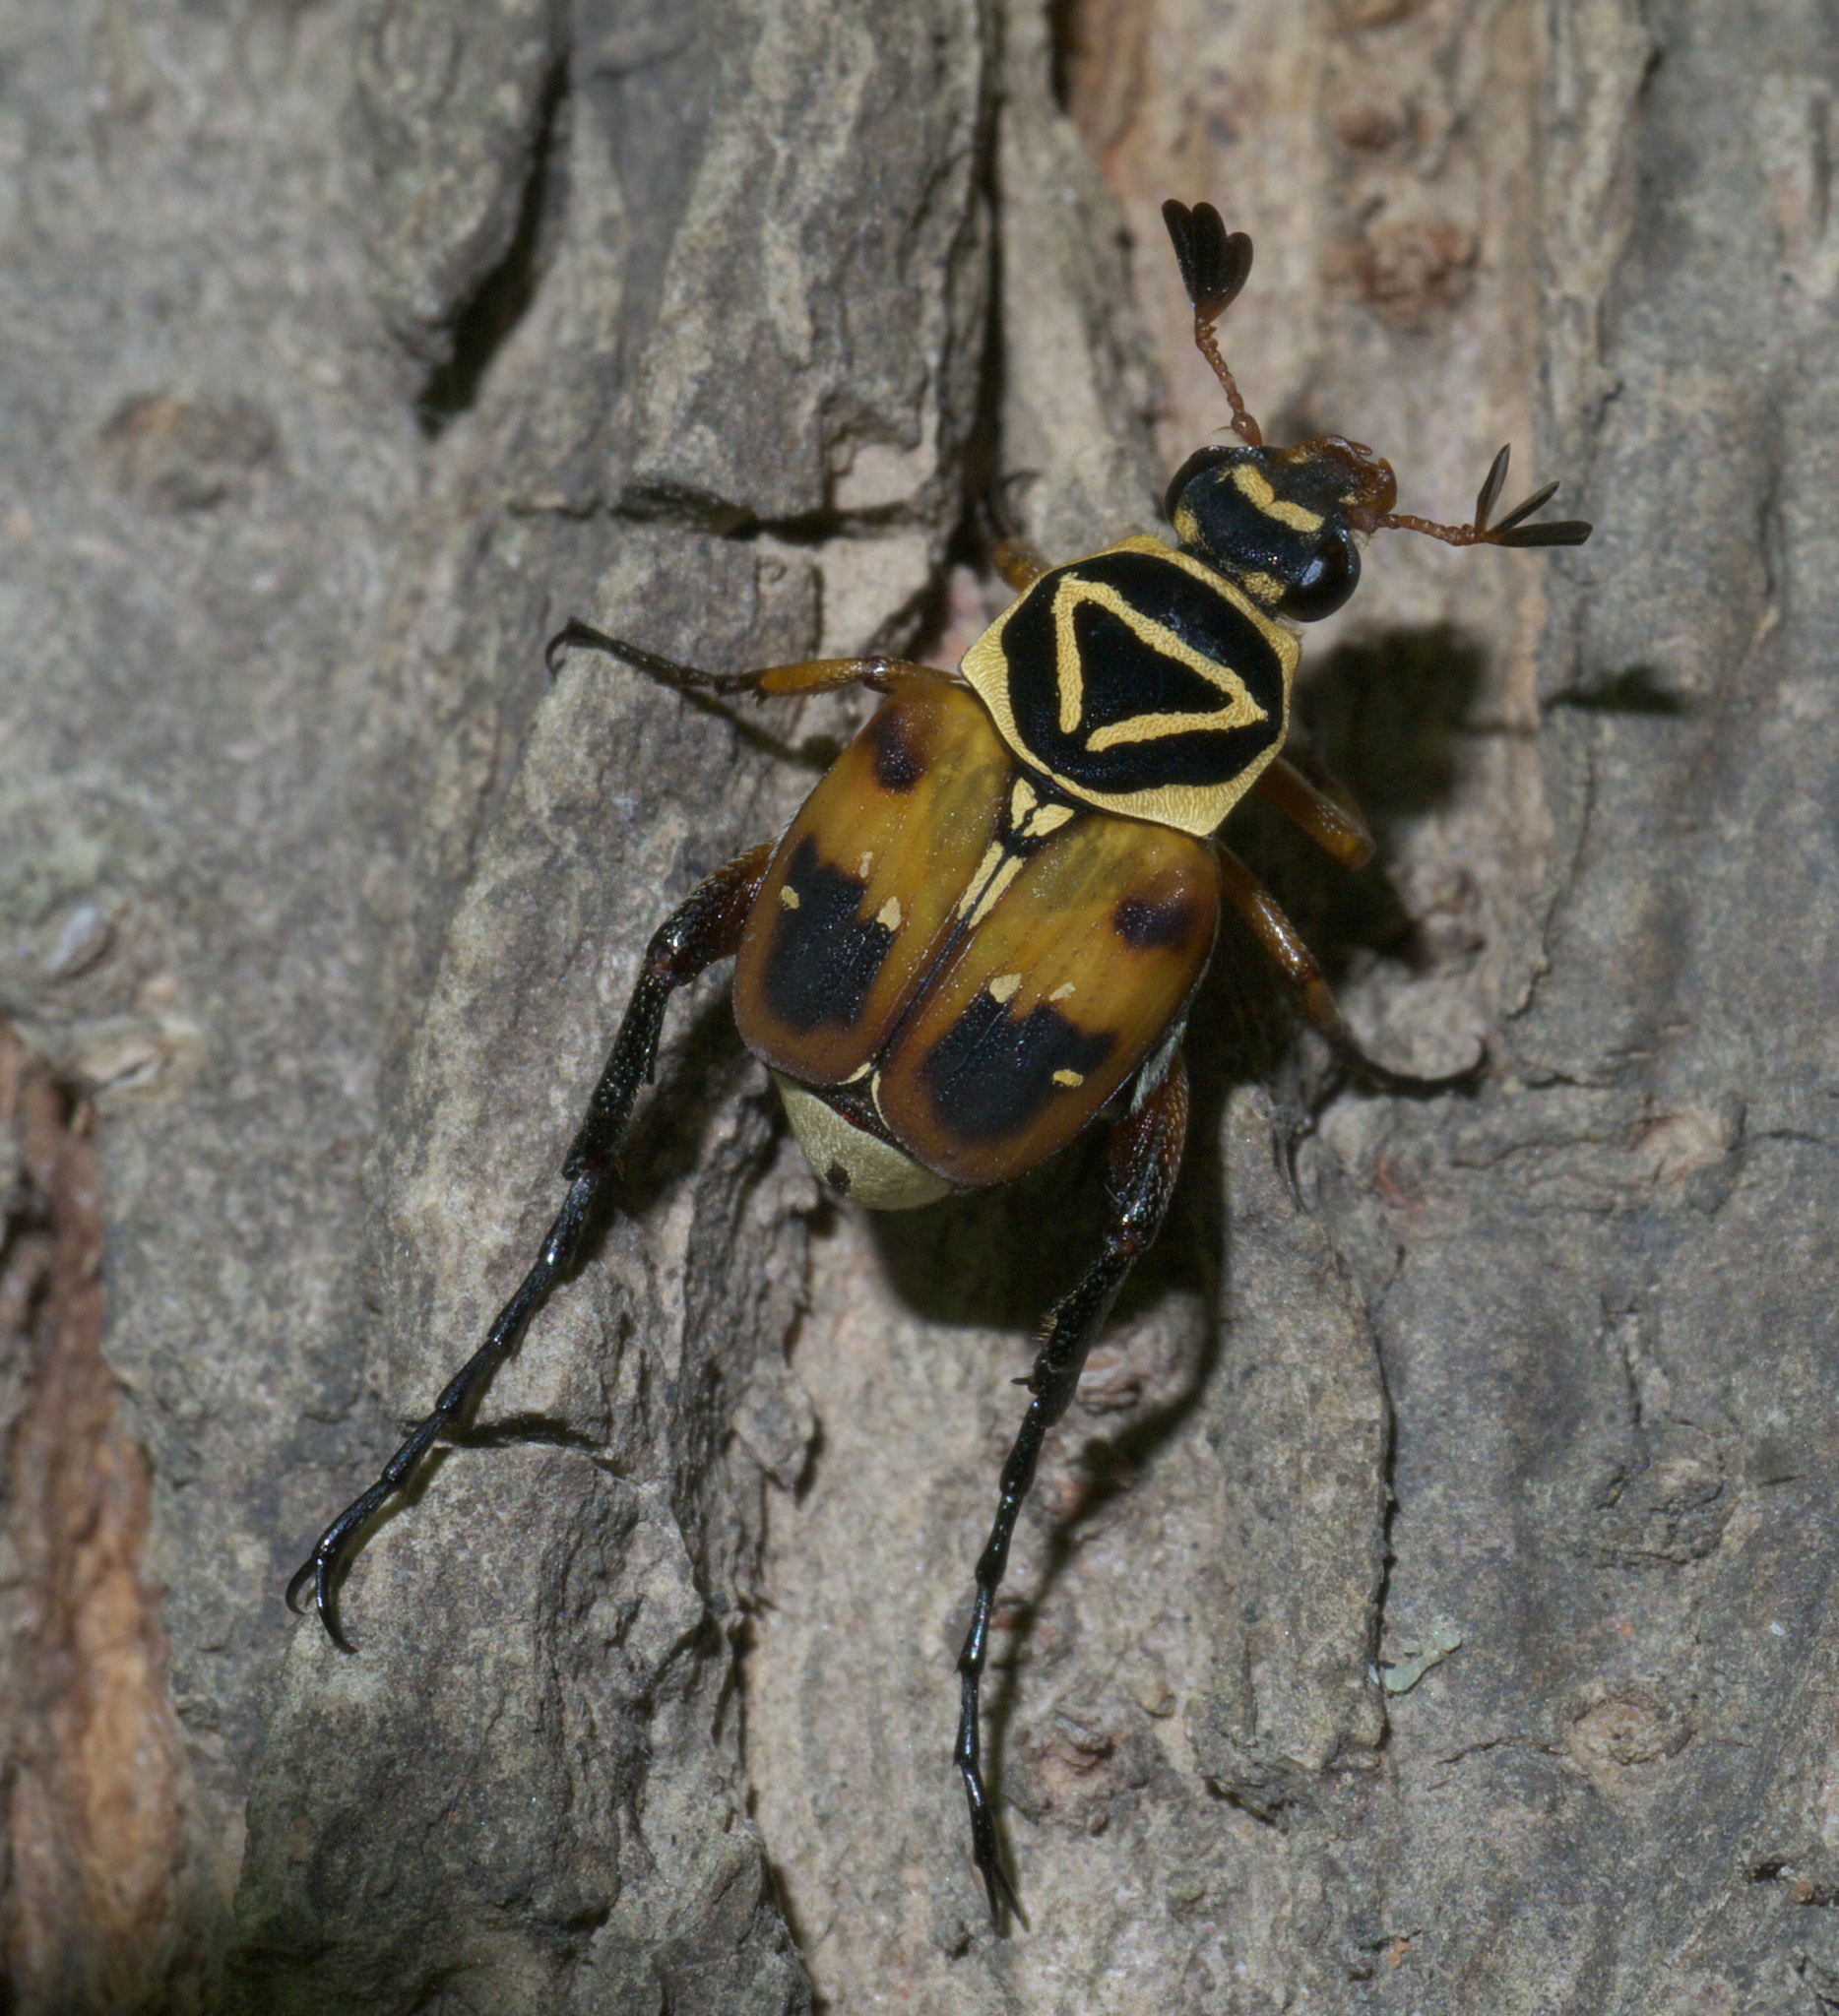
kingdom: Animalia
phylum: Arthropoda
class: Insecta
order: Coleoptera
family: Scarabaeidae
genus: Trigonopeltastes
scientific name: Trigonopeltastes delta
